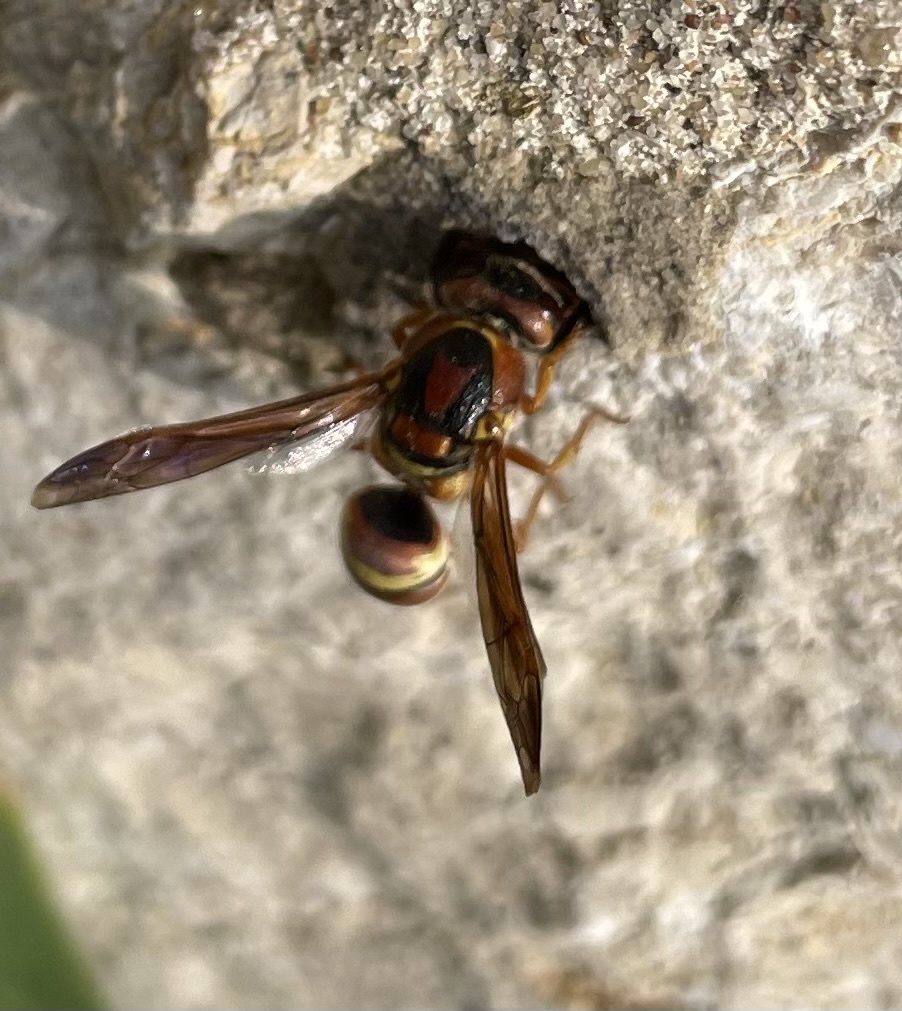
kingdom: Animalia
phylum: Arthropoda
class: Insecta
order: Hymenoptera
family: Eumenidae
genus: Euodynerus
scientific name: Euodynerus pratensis
